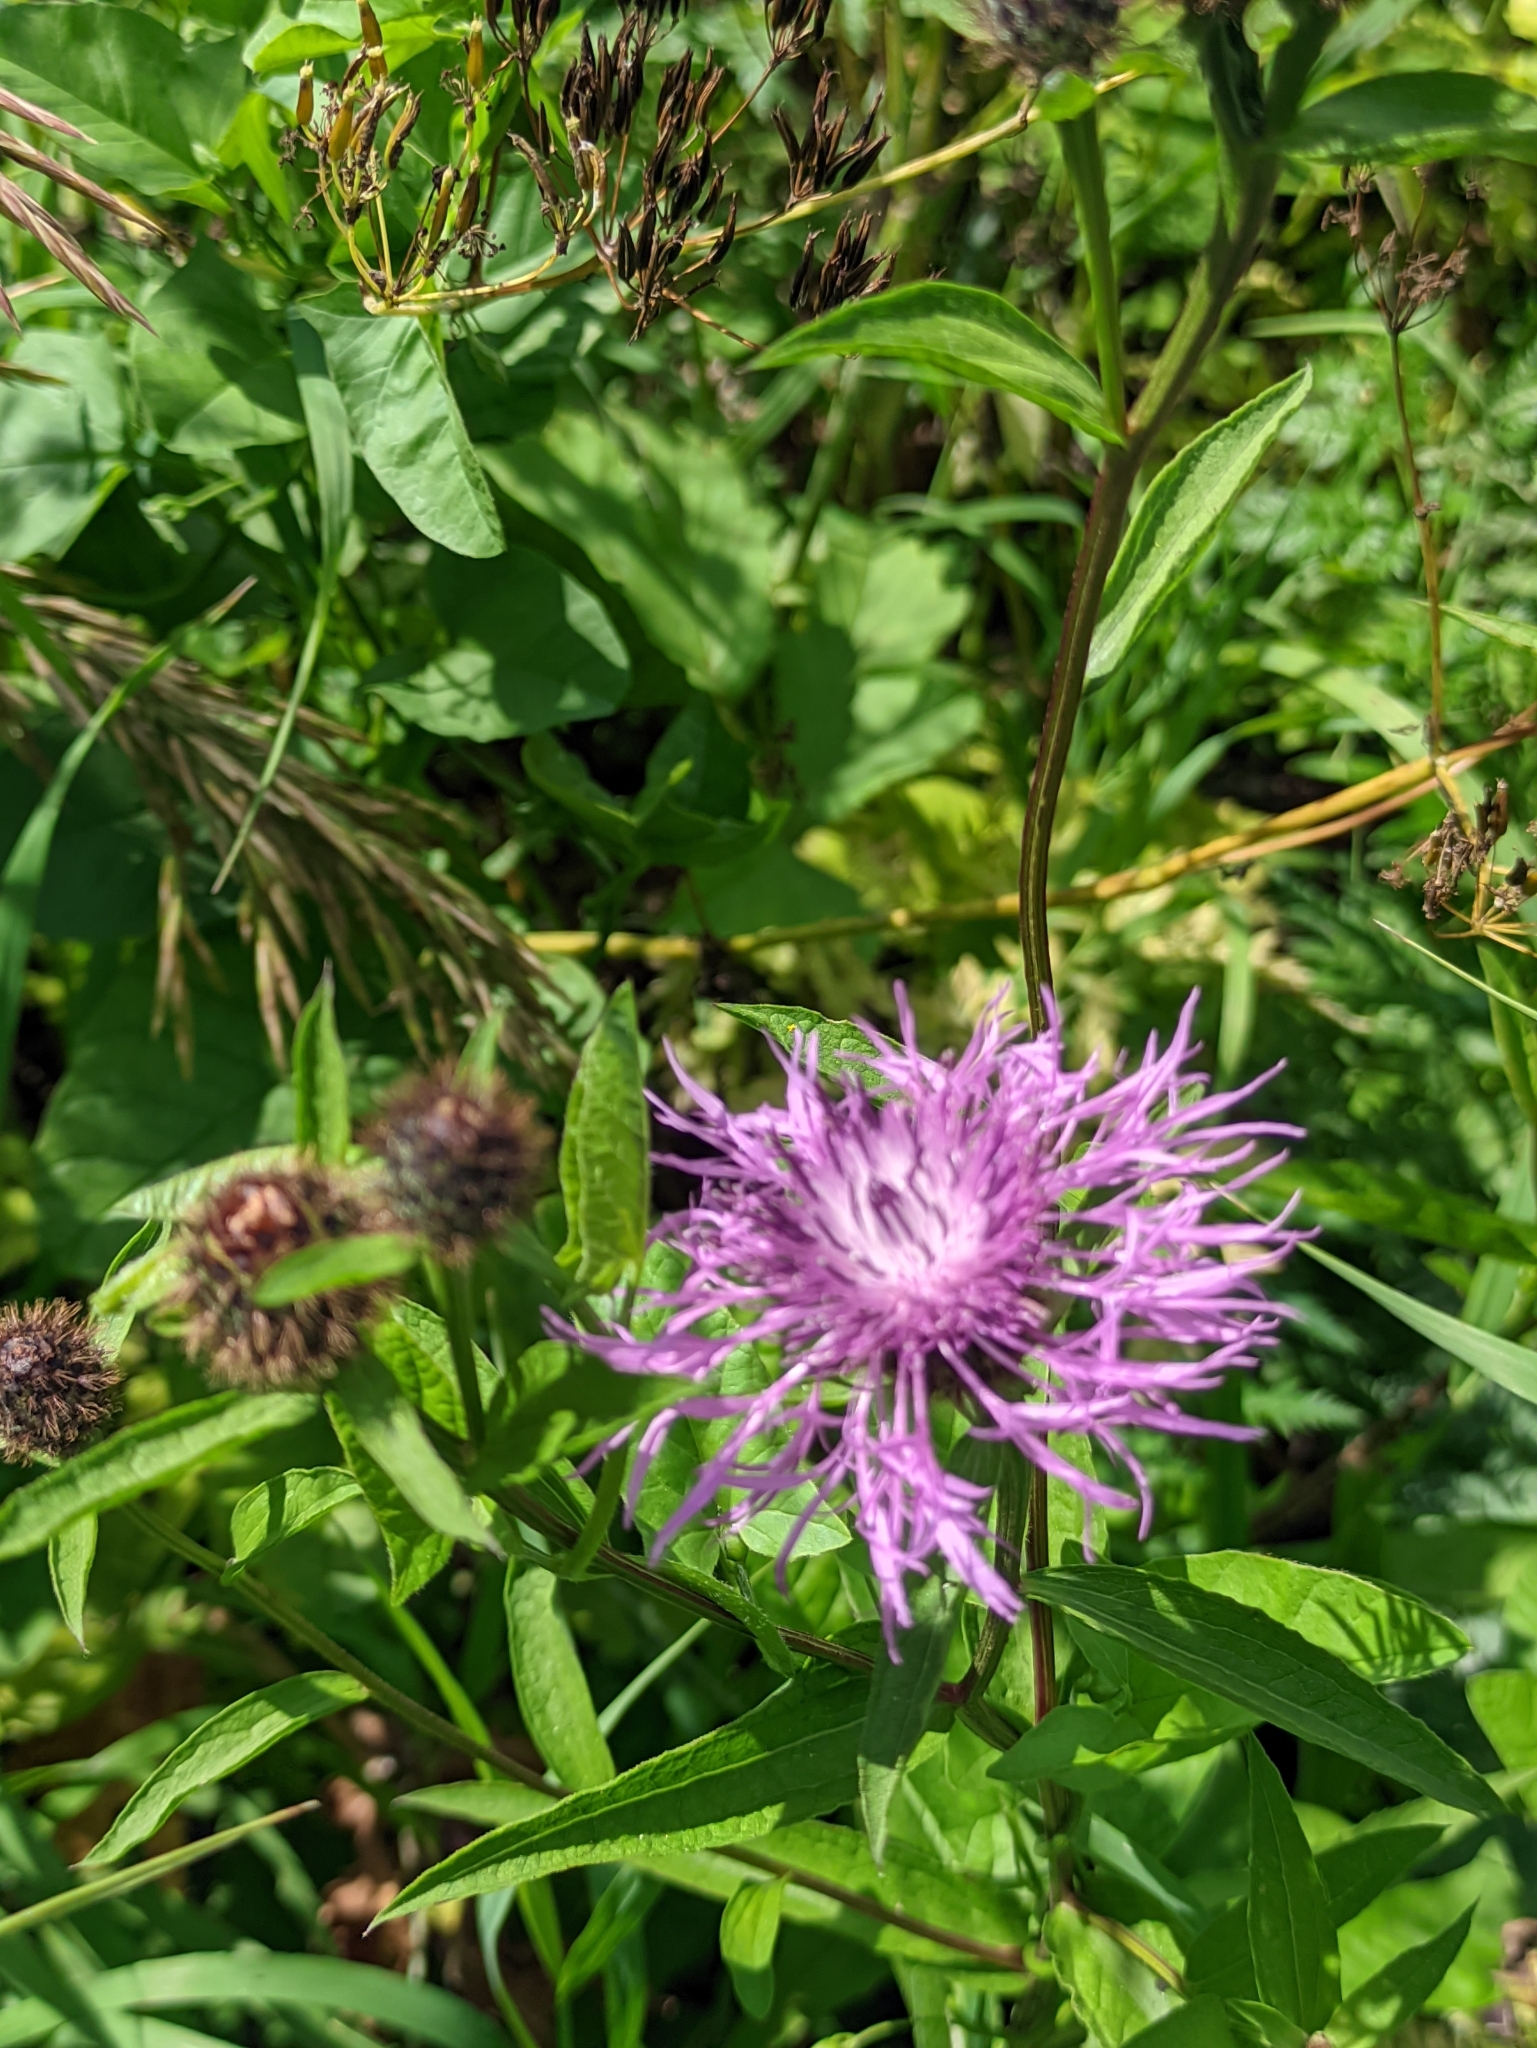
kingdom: Plantae
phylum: Tracheophyta
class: Magnoliopsida
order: Asterales
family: Asteraceae
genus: Centaurea
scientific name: Centaurea phrygia
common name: Wig knapweed
